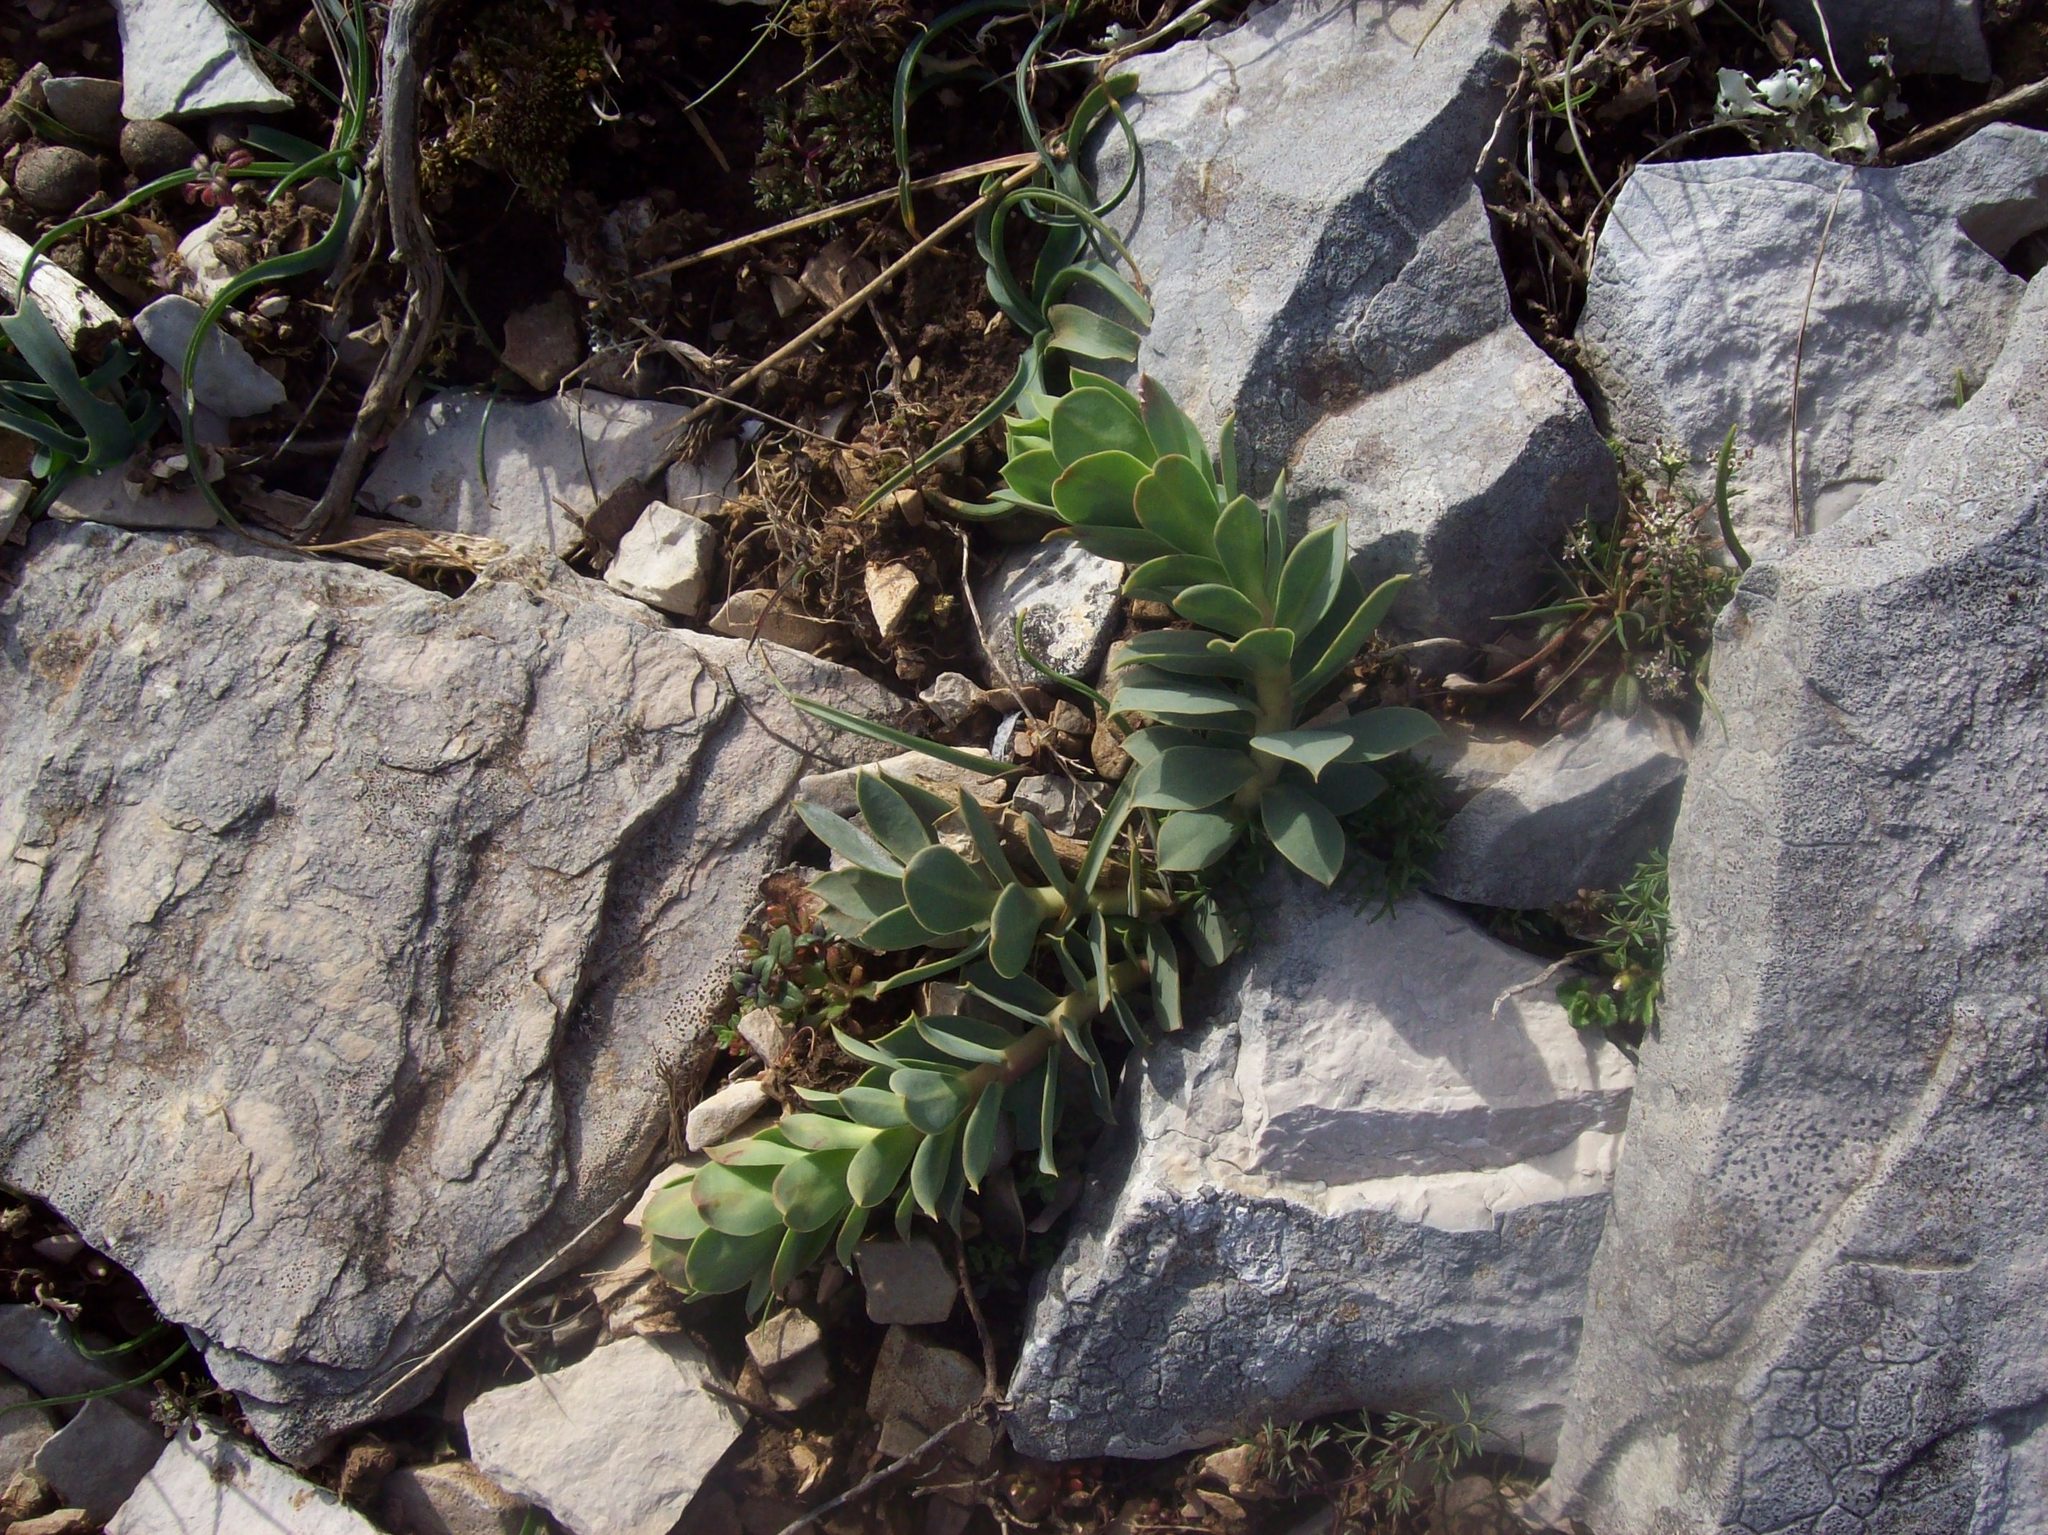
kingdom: Plantae
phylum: Tracheophyta
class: Magnoliopsida
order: Malpighiales
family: Euphorbiaceae
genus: Euphorbia
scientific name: Euphorbia myrsinites
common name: Myrtle spurge
